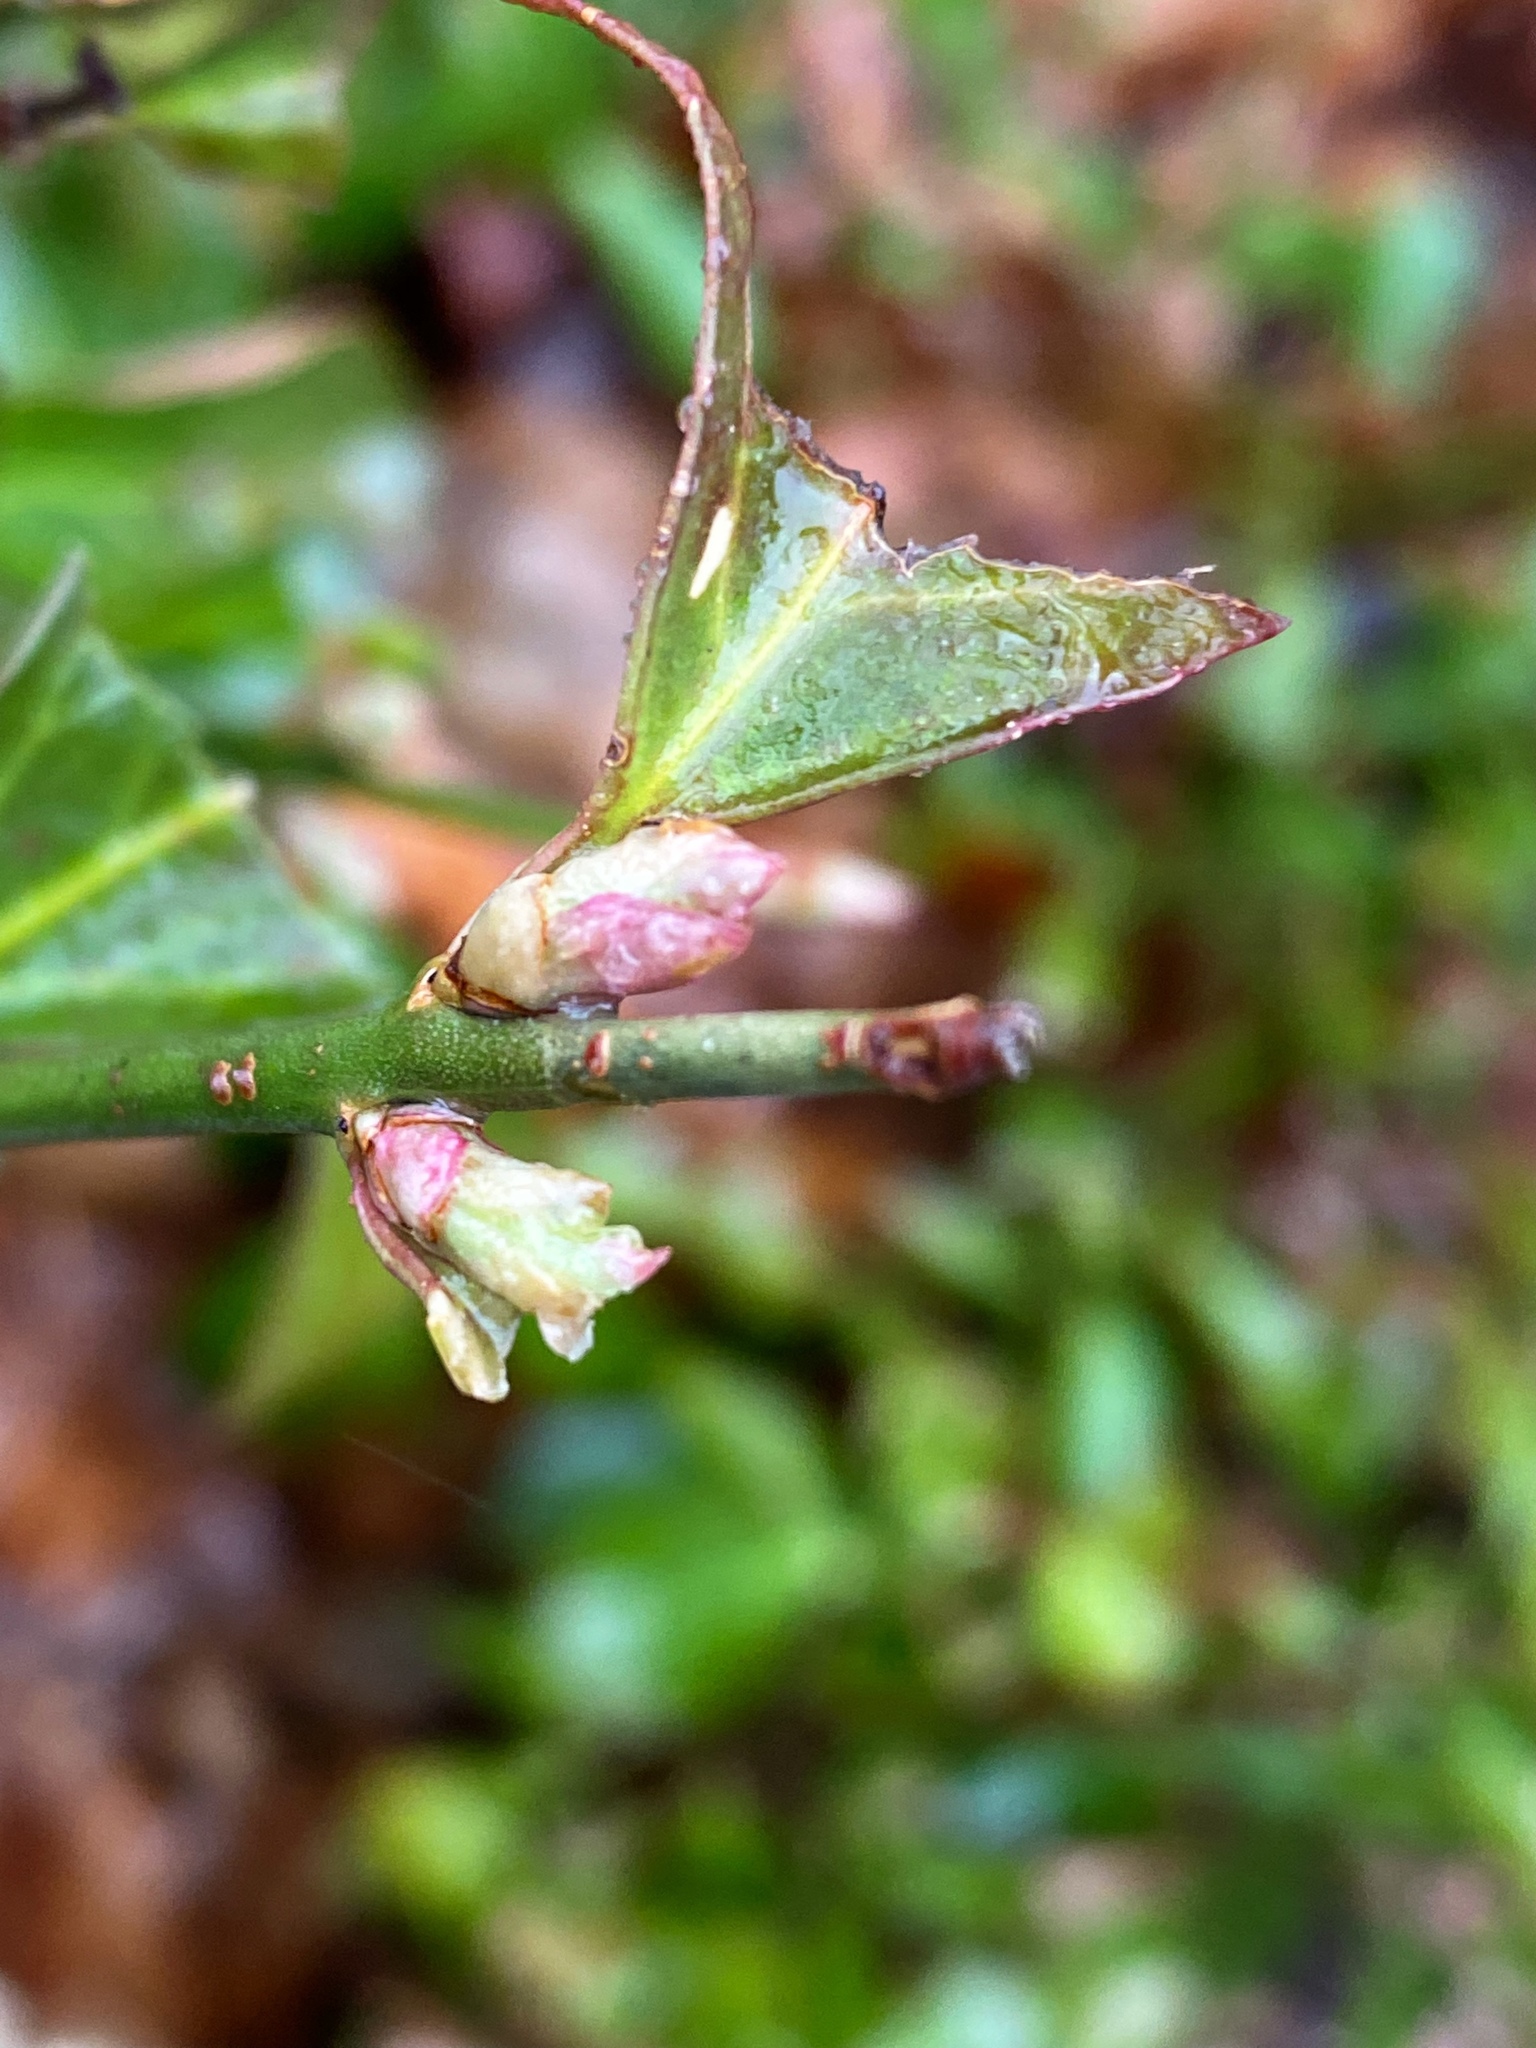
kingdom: Plantae
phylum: Tracheophyta
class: Magnoliopsida
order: Celastrales
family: Celastraceae
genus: Euonymus
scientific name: Euonymus fortunei
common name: Climbing euonymus
